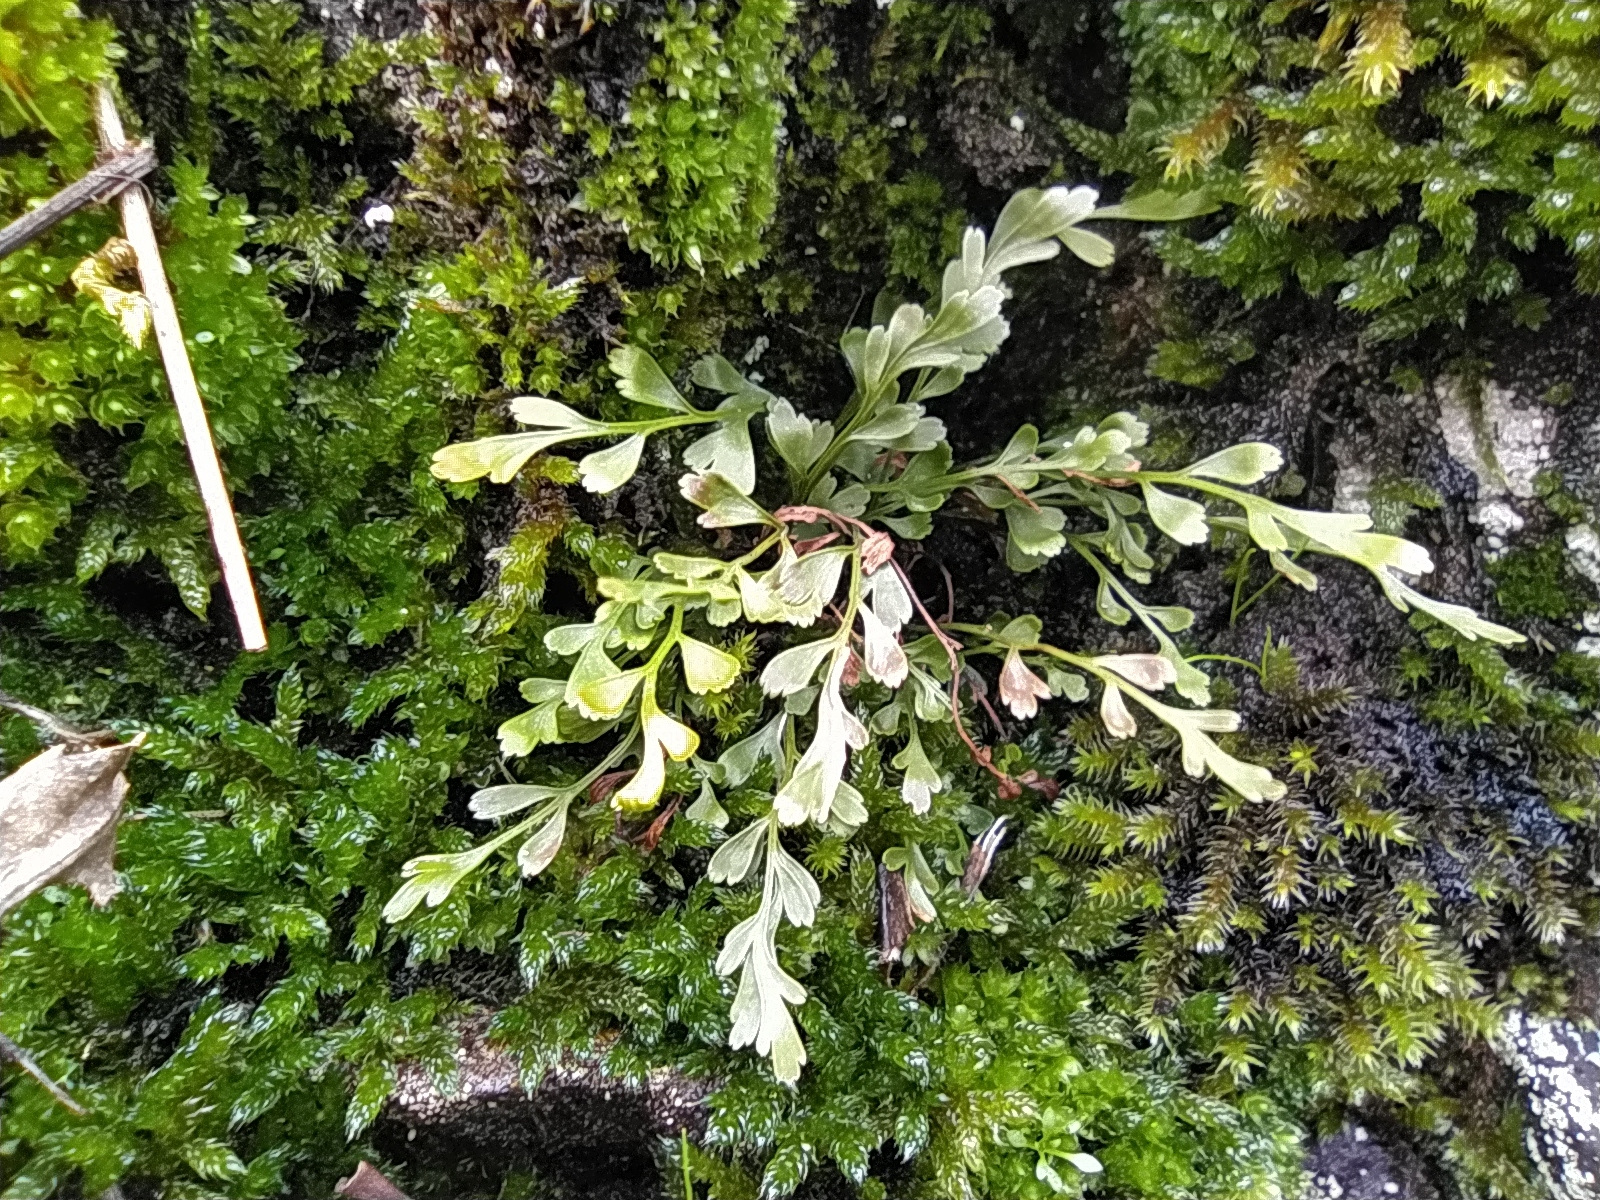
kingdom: Plantae
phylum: Tracheophyta
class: Polypodiopsida
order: Polypodiales
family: Aspleniaceae
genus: Asplenium
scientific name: Asplenium alternifolium
